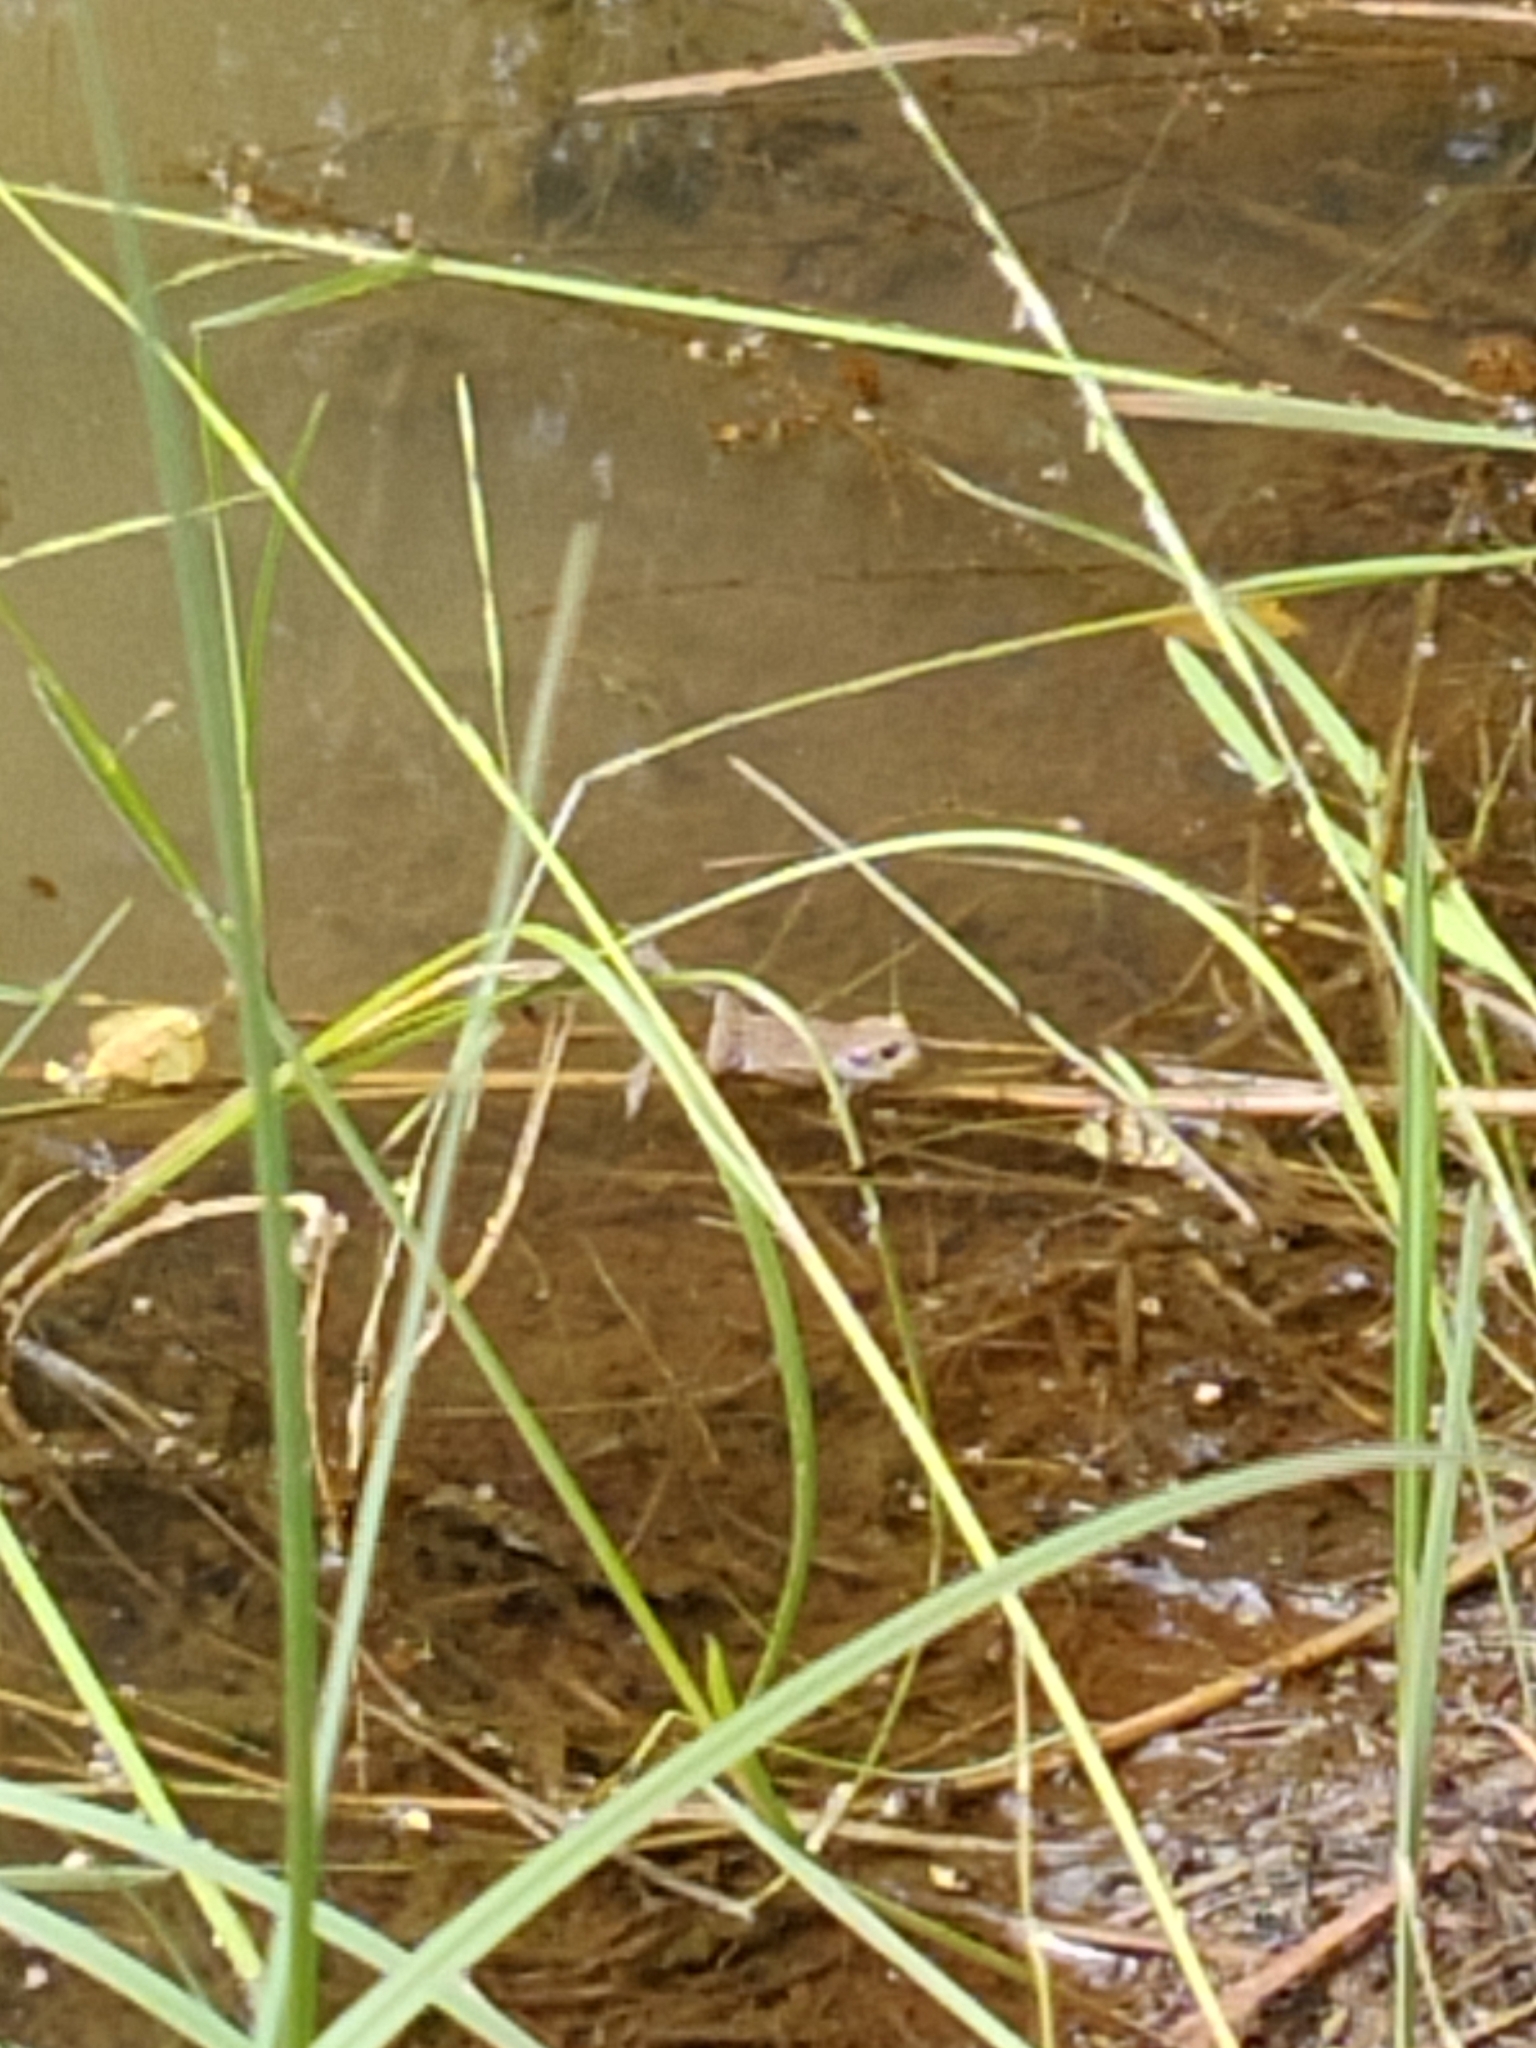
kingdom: Animalia
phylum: Chordata
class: Amphibia
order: Anura
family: Bufonidae
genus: Bufo
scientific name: Bufo bufo
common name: Common toad
